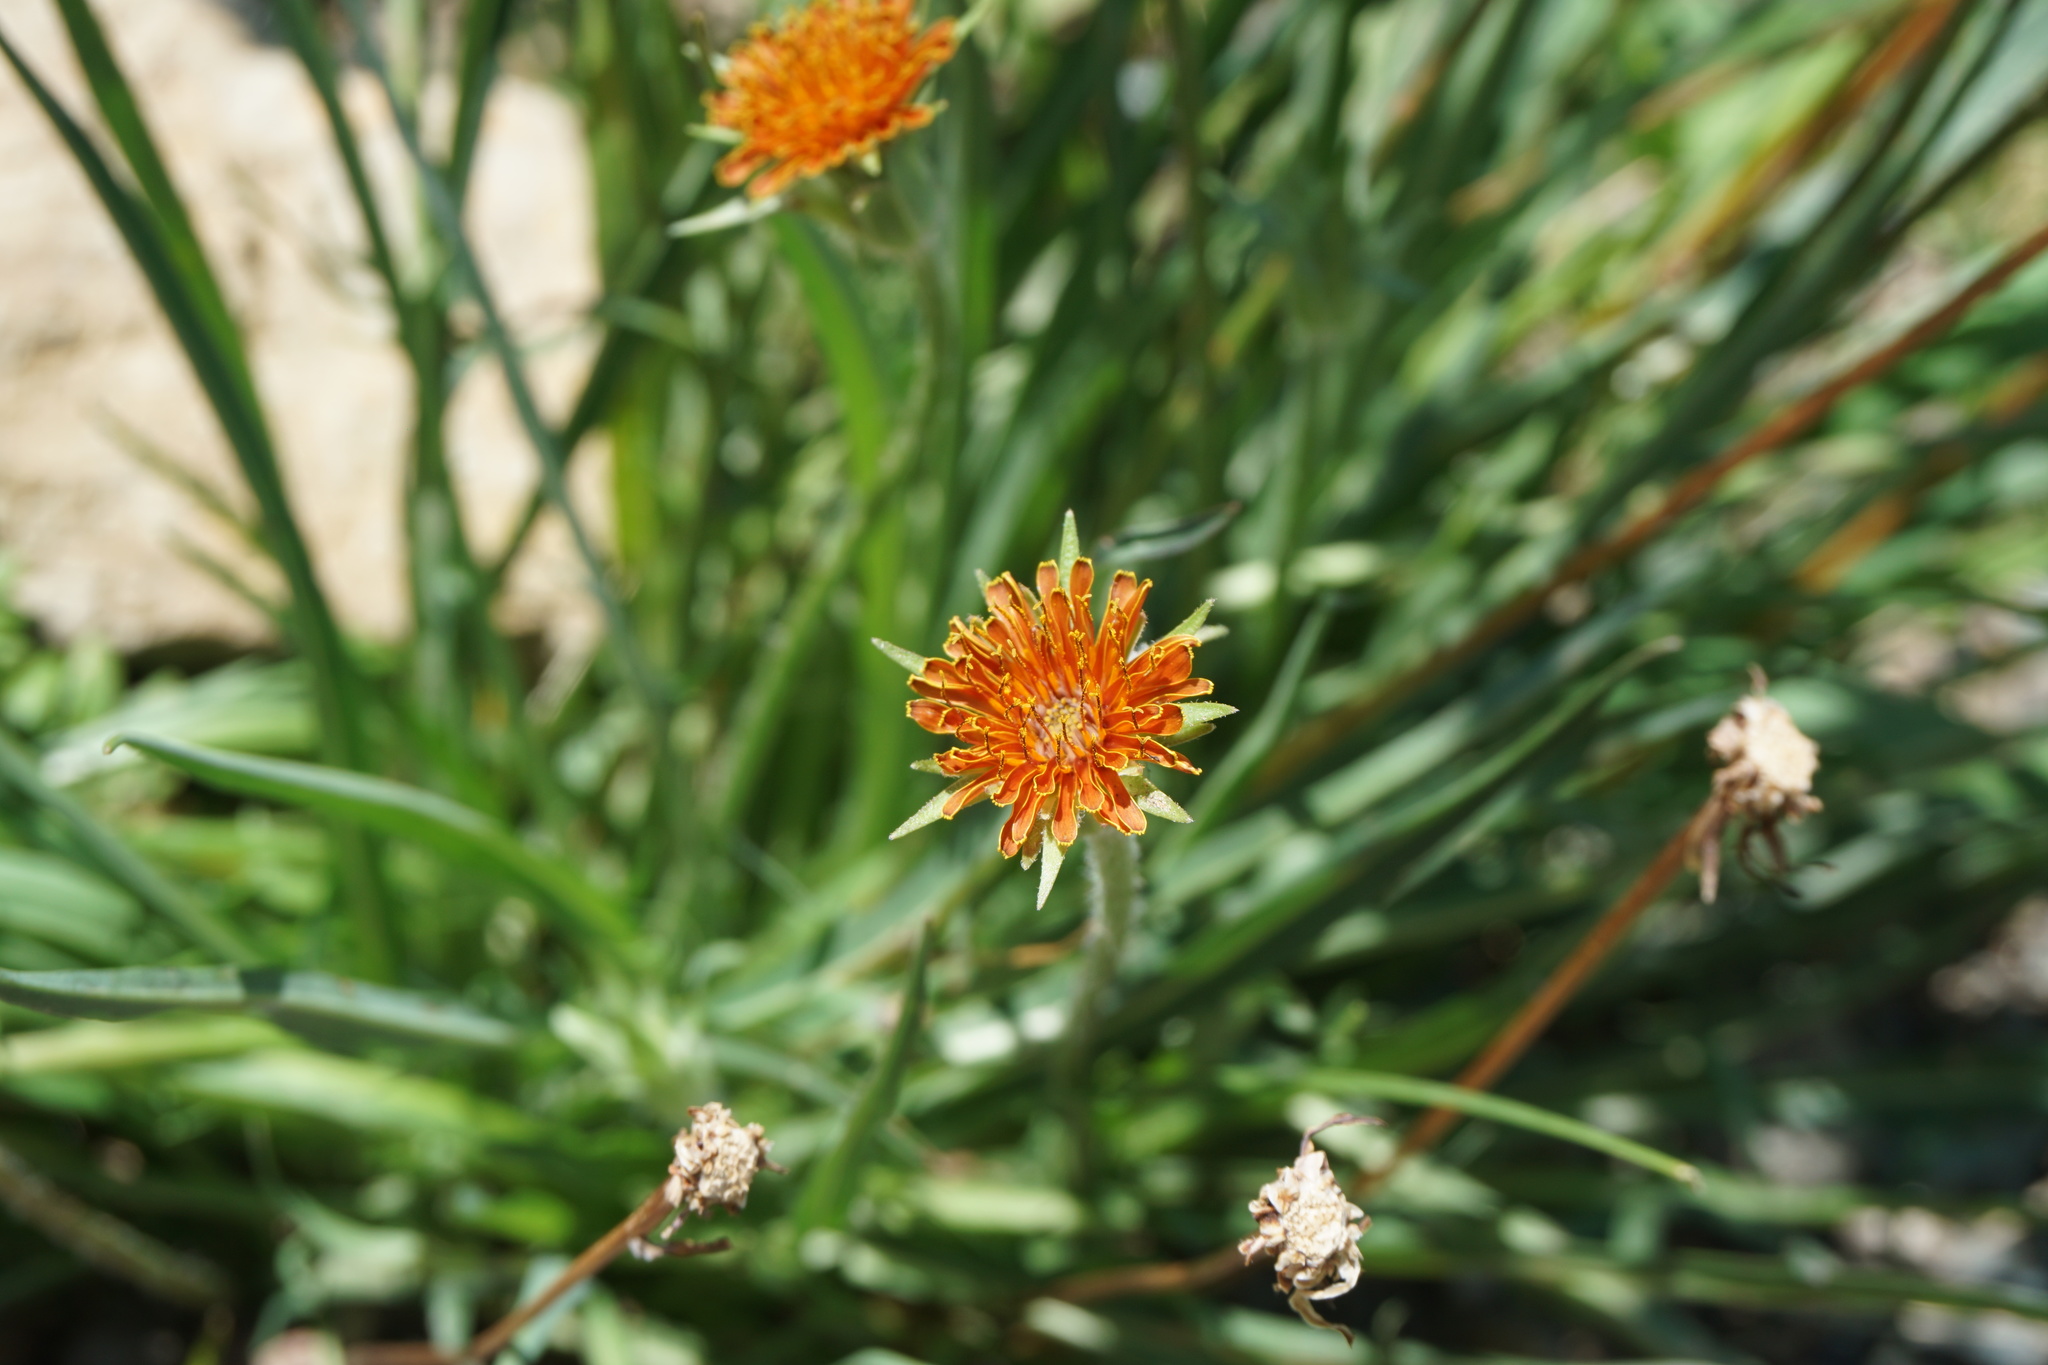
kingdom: Plantae
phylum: Tracheophyta
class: Magnoliopsida
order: Asterales
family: Asteraceae
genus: Agoseris
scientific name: Agoseris aurantiaca
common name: Mountain agoseris
